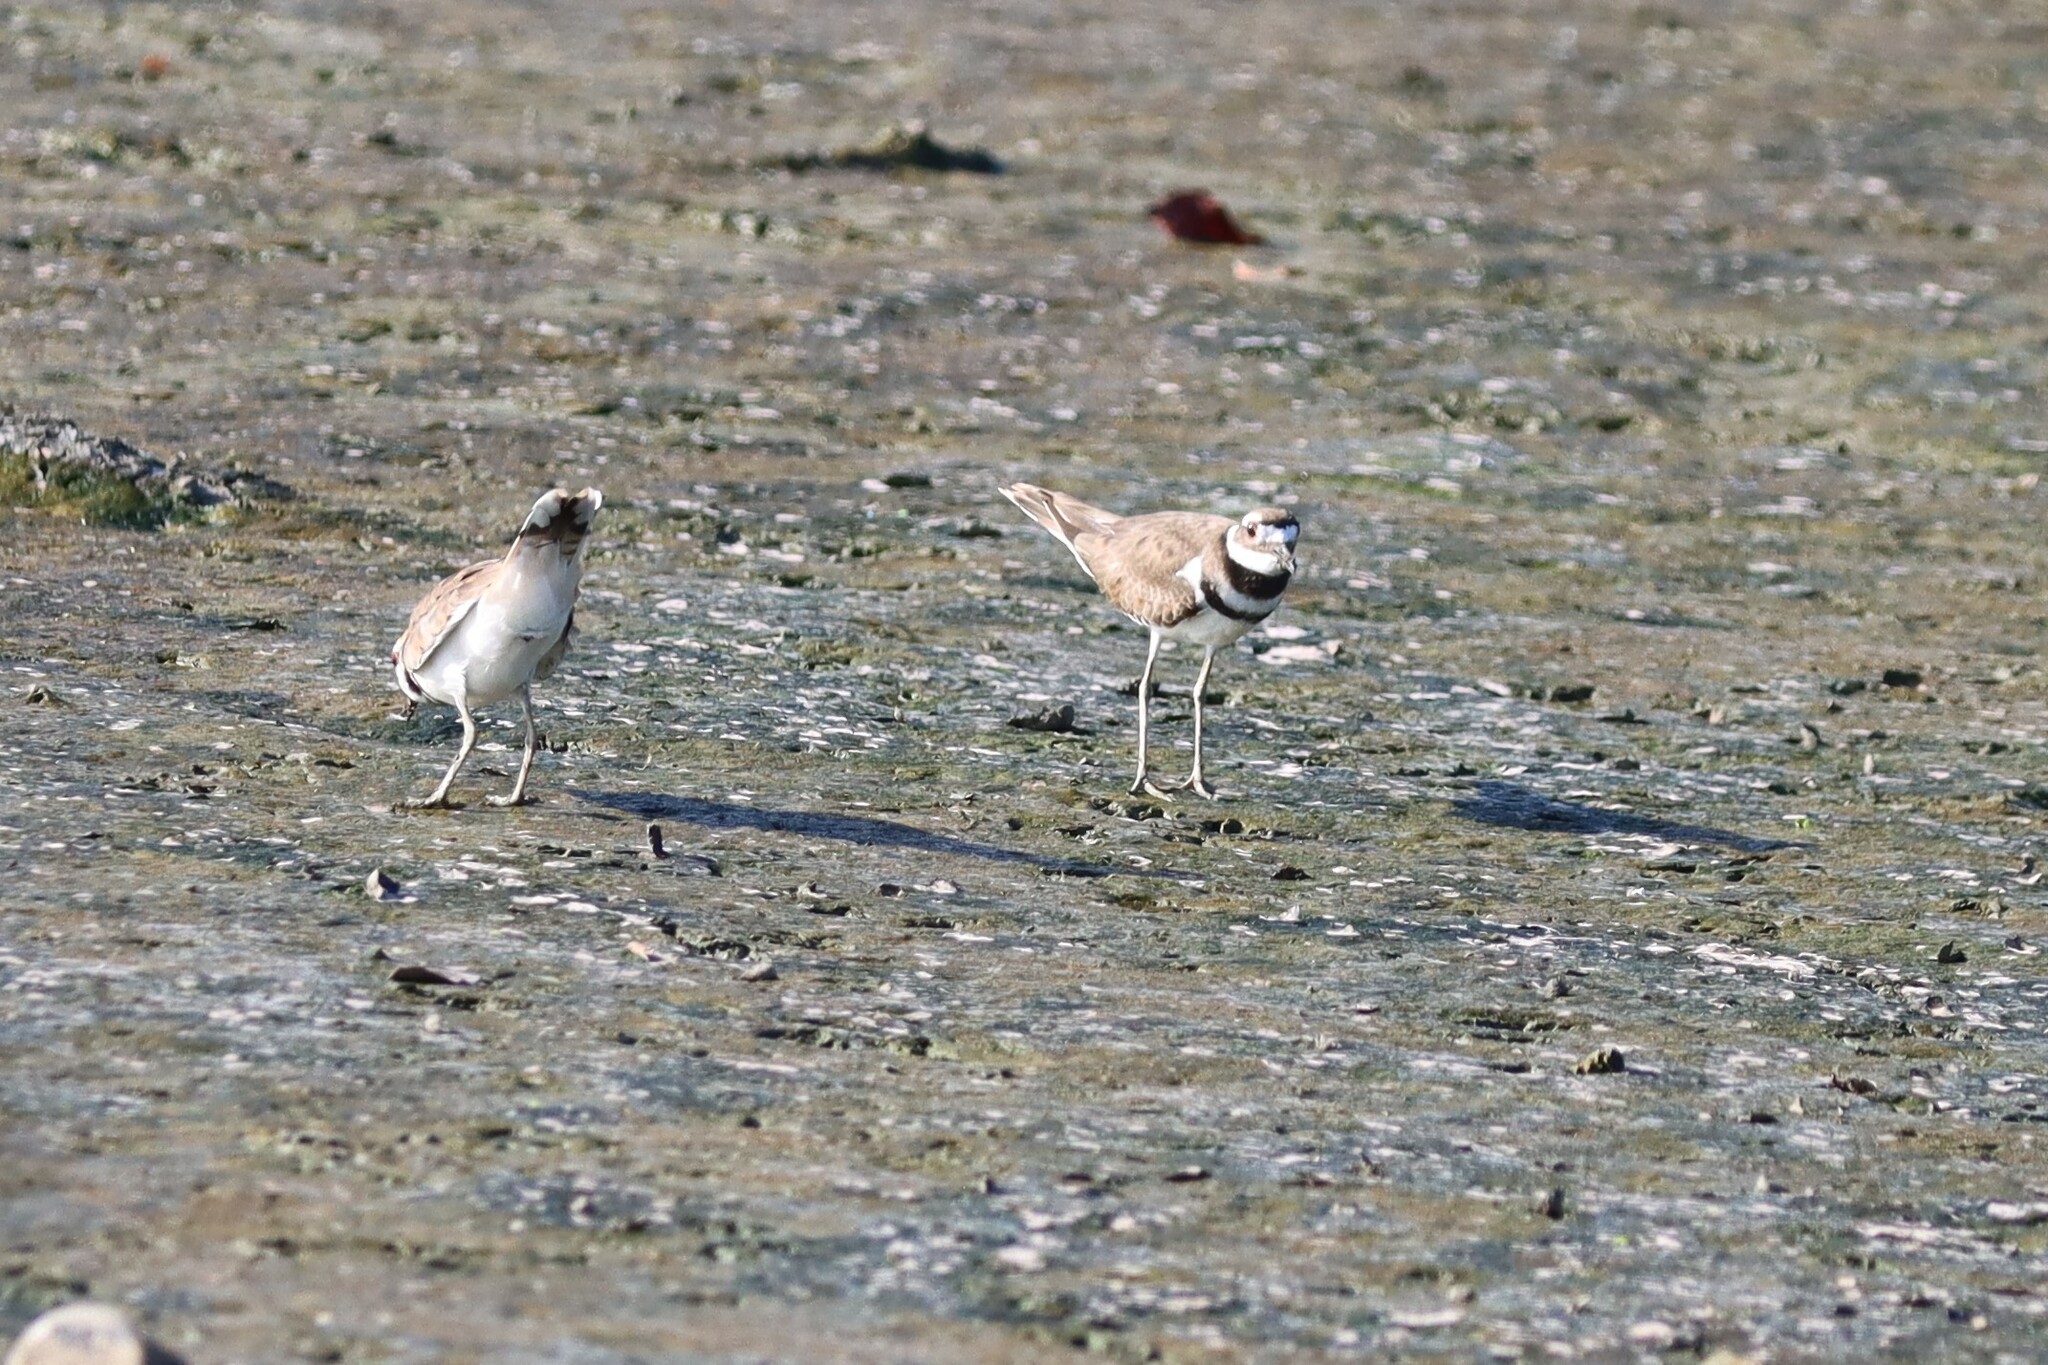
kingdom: Animalia
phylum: Chordata
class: Aves
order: Charadriiformes
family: Charadriidae
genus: Charadrius
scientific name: Charadrius vociferus
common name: Killdeer
